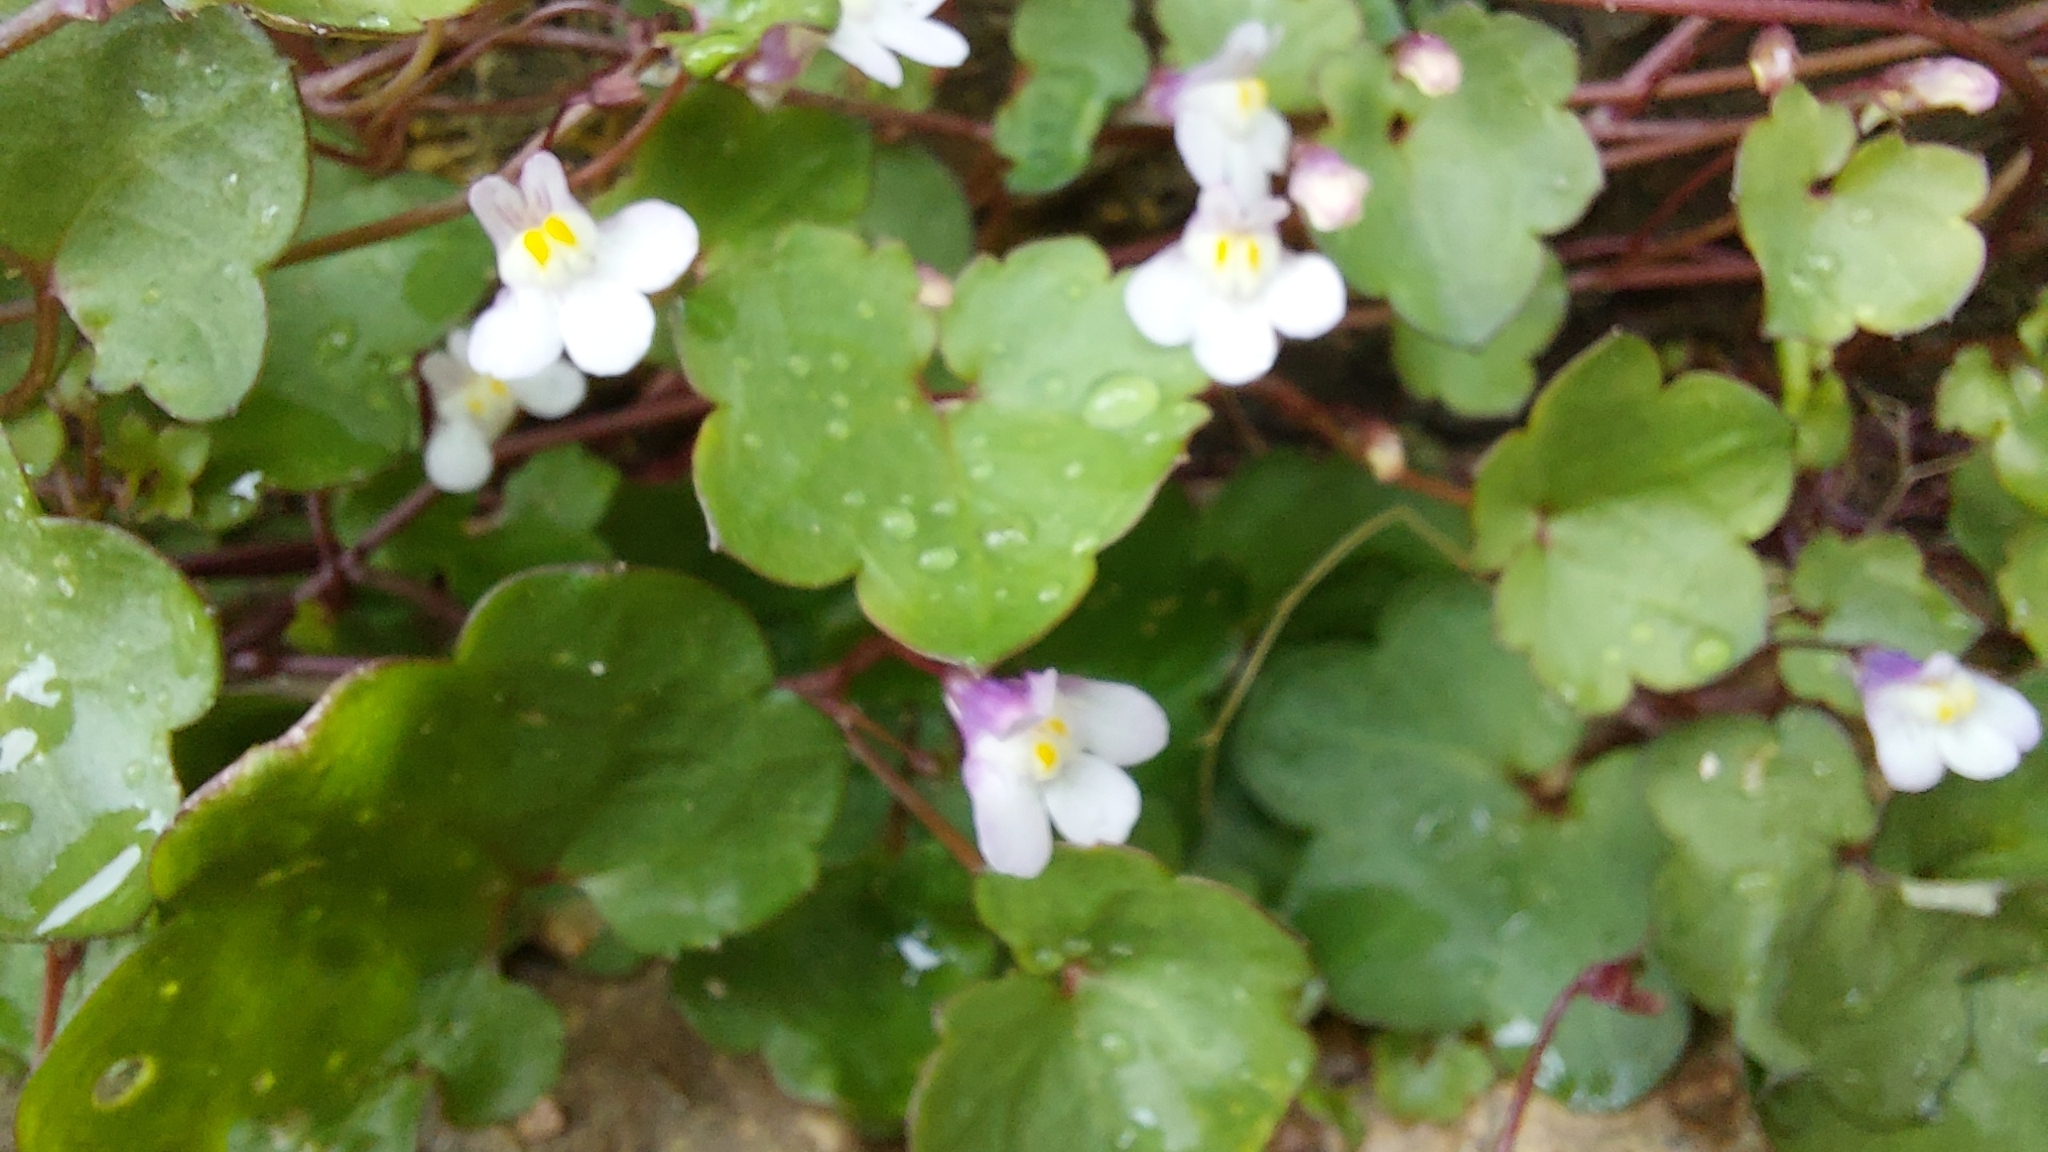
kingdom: Plantae
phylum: Tracheophyta
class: Magnoliopsida
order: Lamiales
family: Plantaginaceae
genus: Cymbalaria
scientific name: Cymbalaria muralis
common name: Ivy-leaved toadflax
